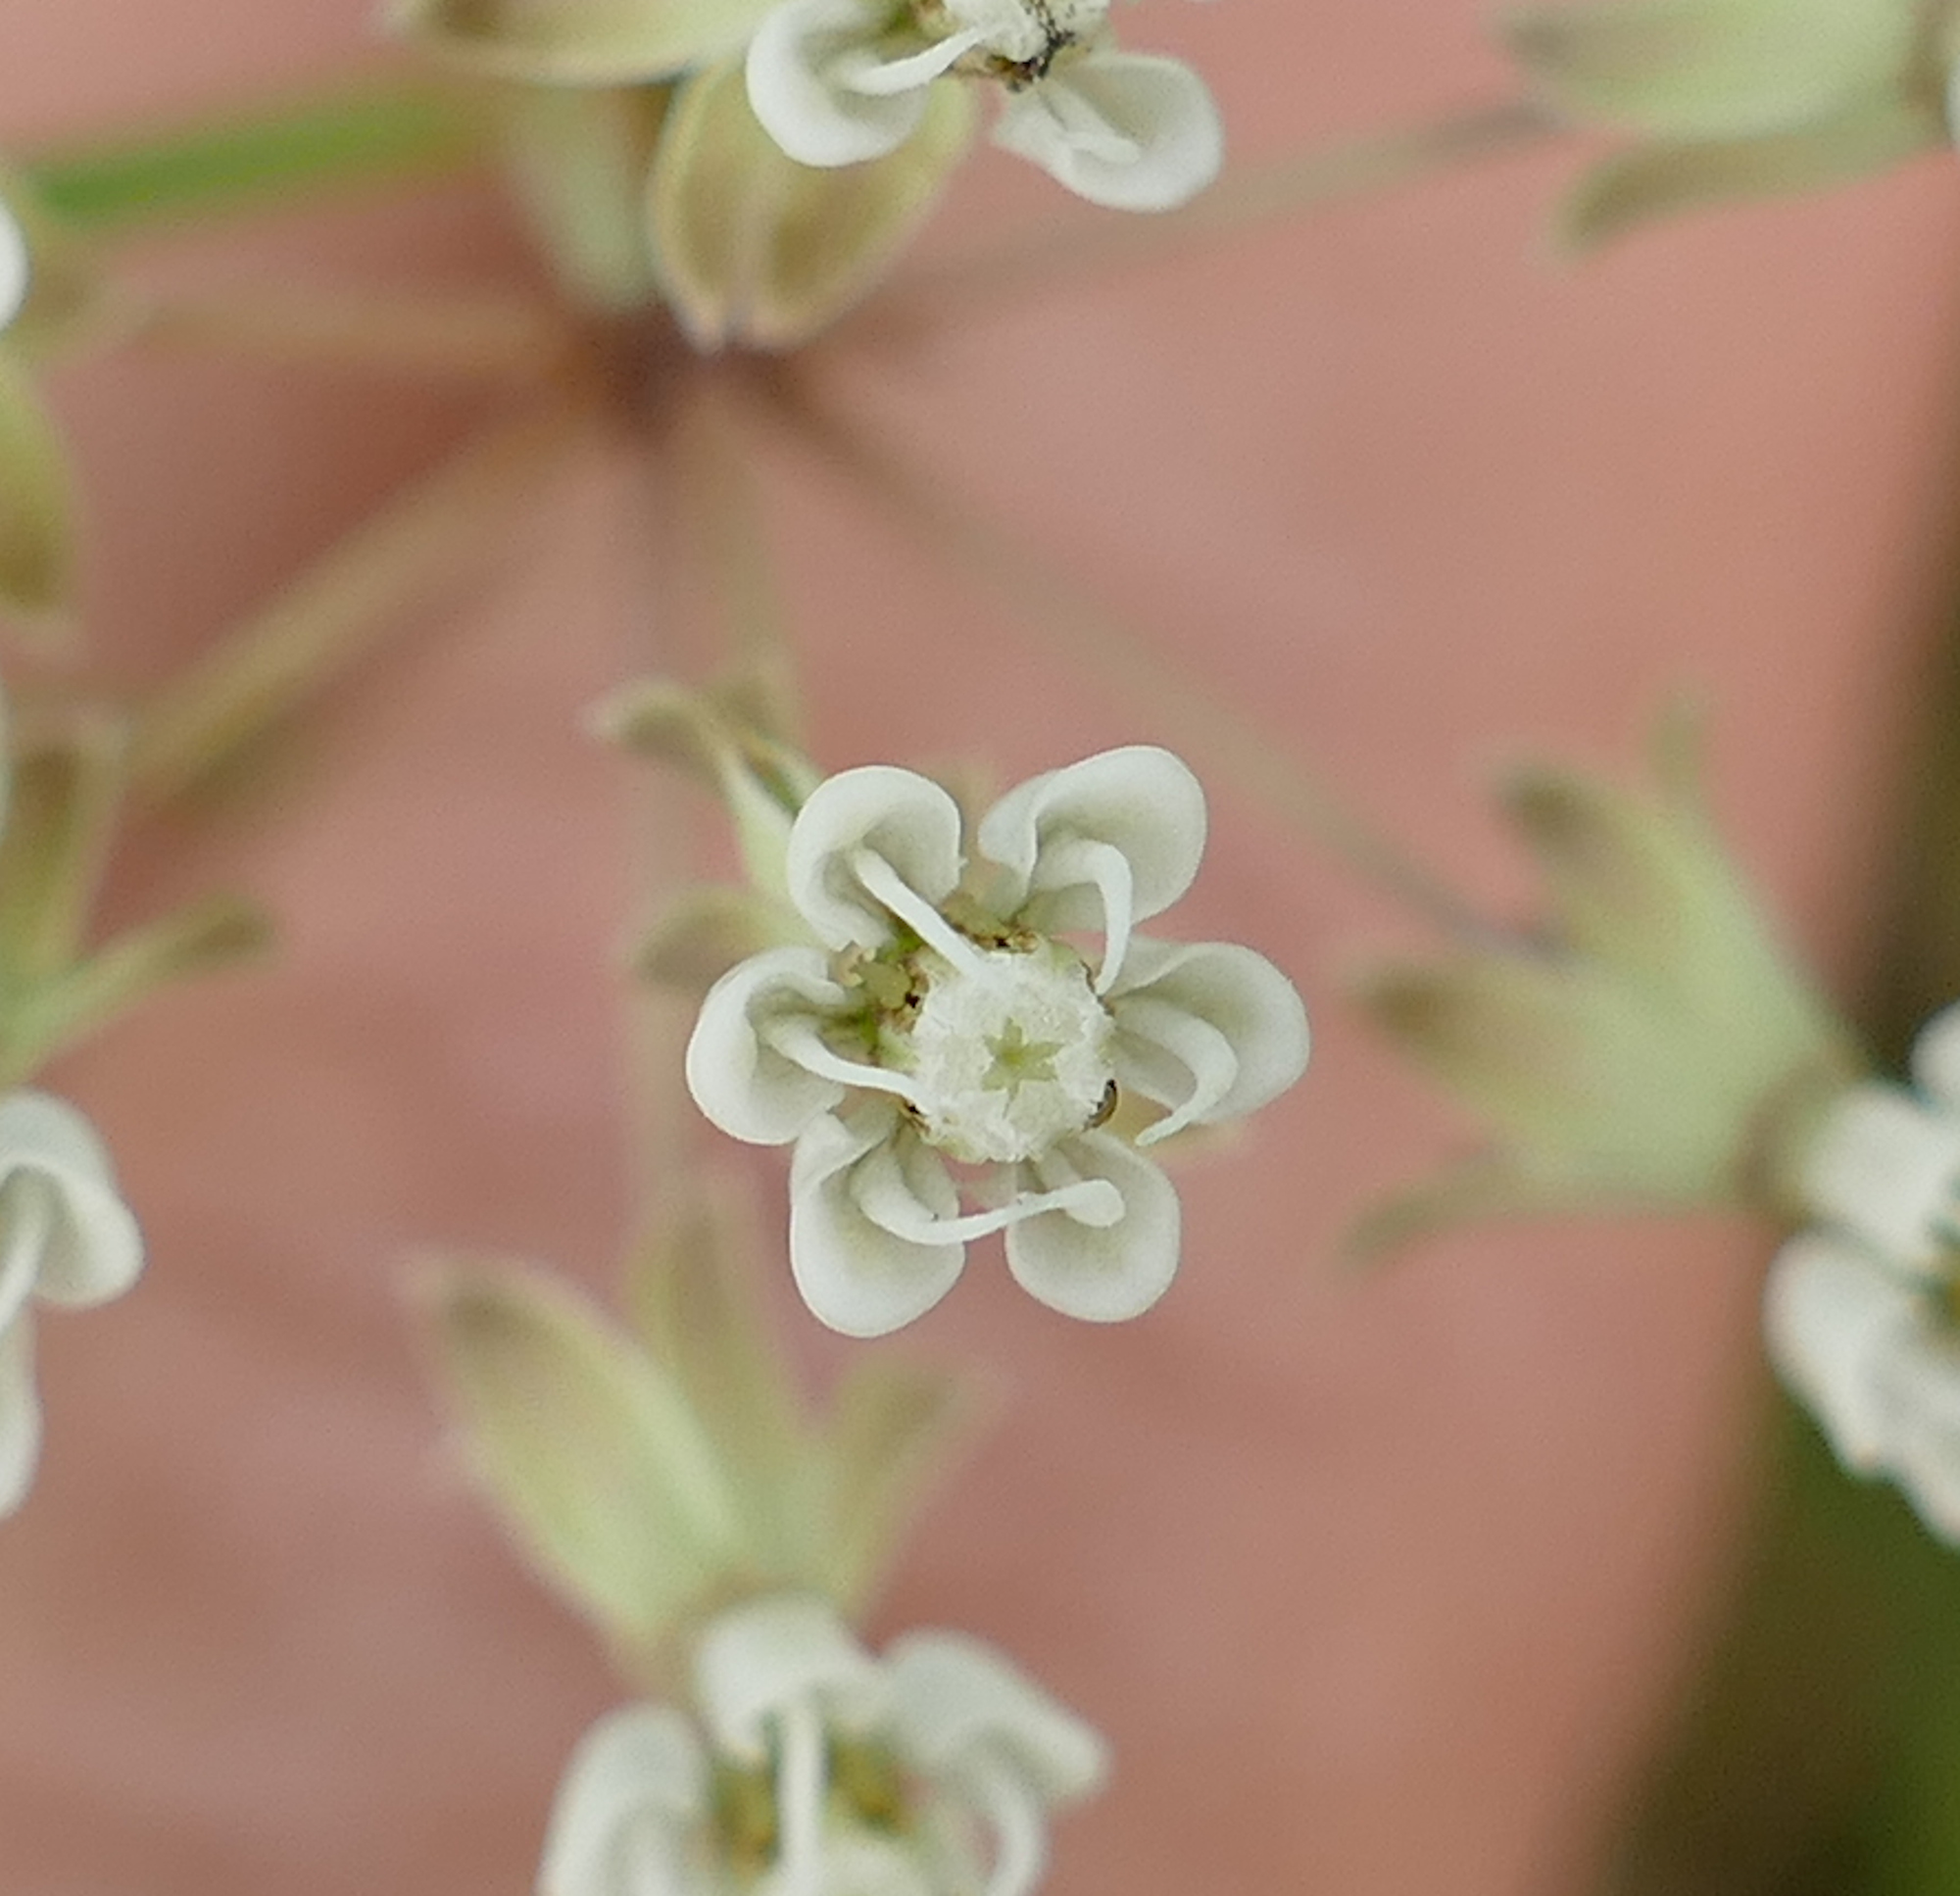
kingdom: Plantae
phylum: Tracheophyta
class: Magnoliopsida
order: Gentianales
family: Apocynaceae
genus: Asclepias
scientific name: Asclepias linearis
